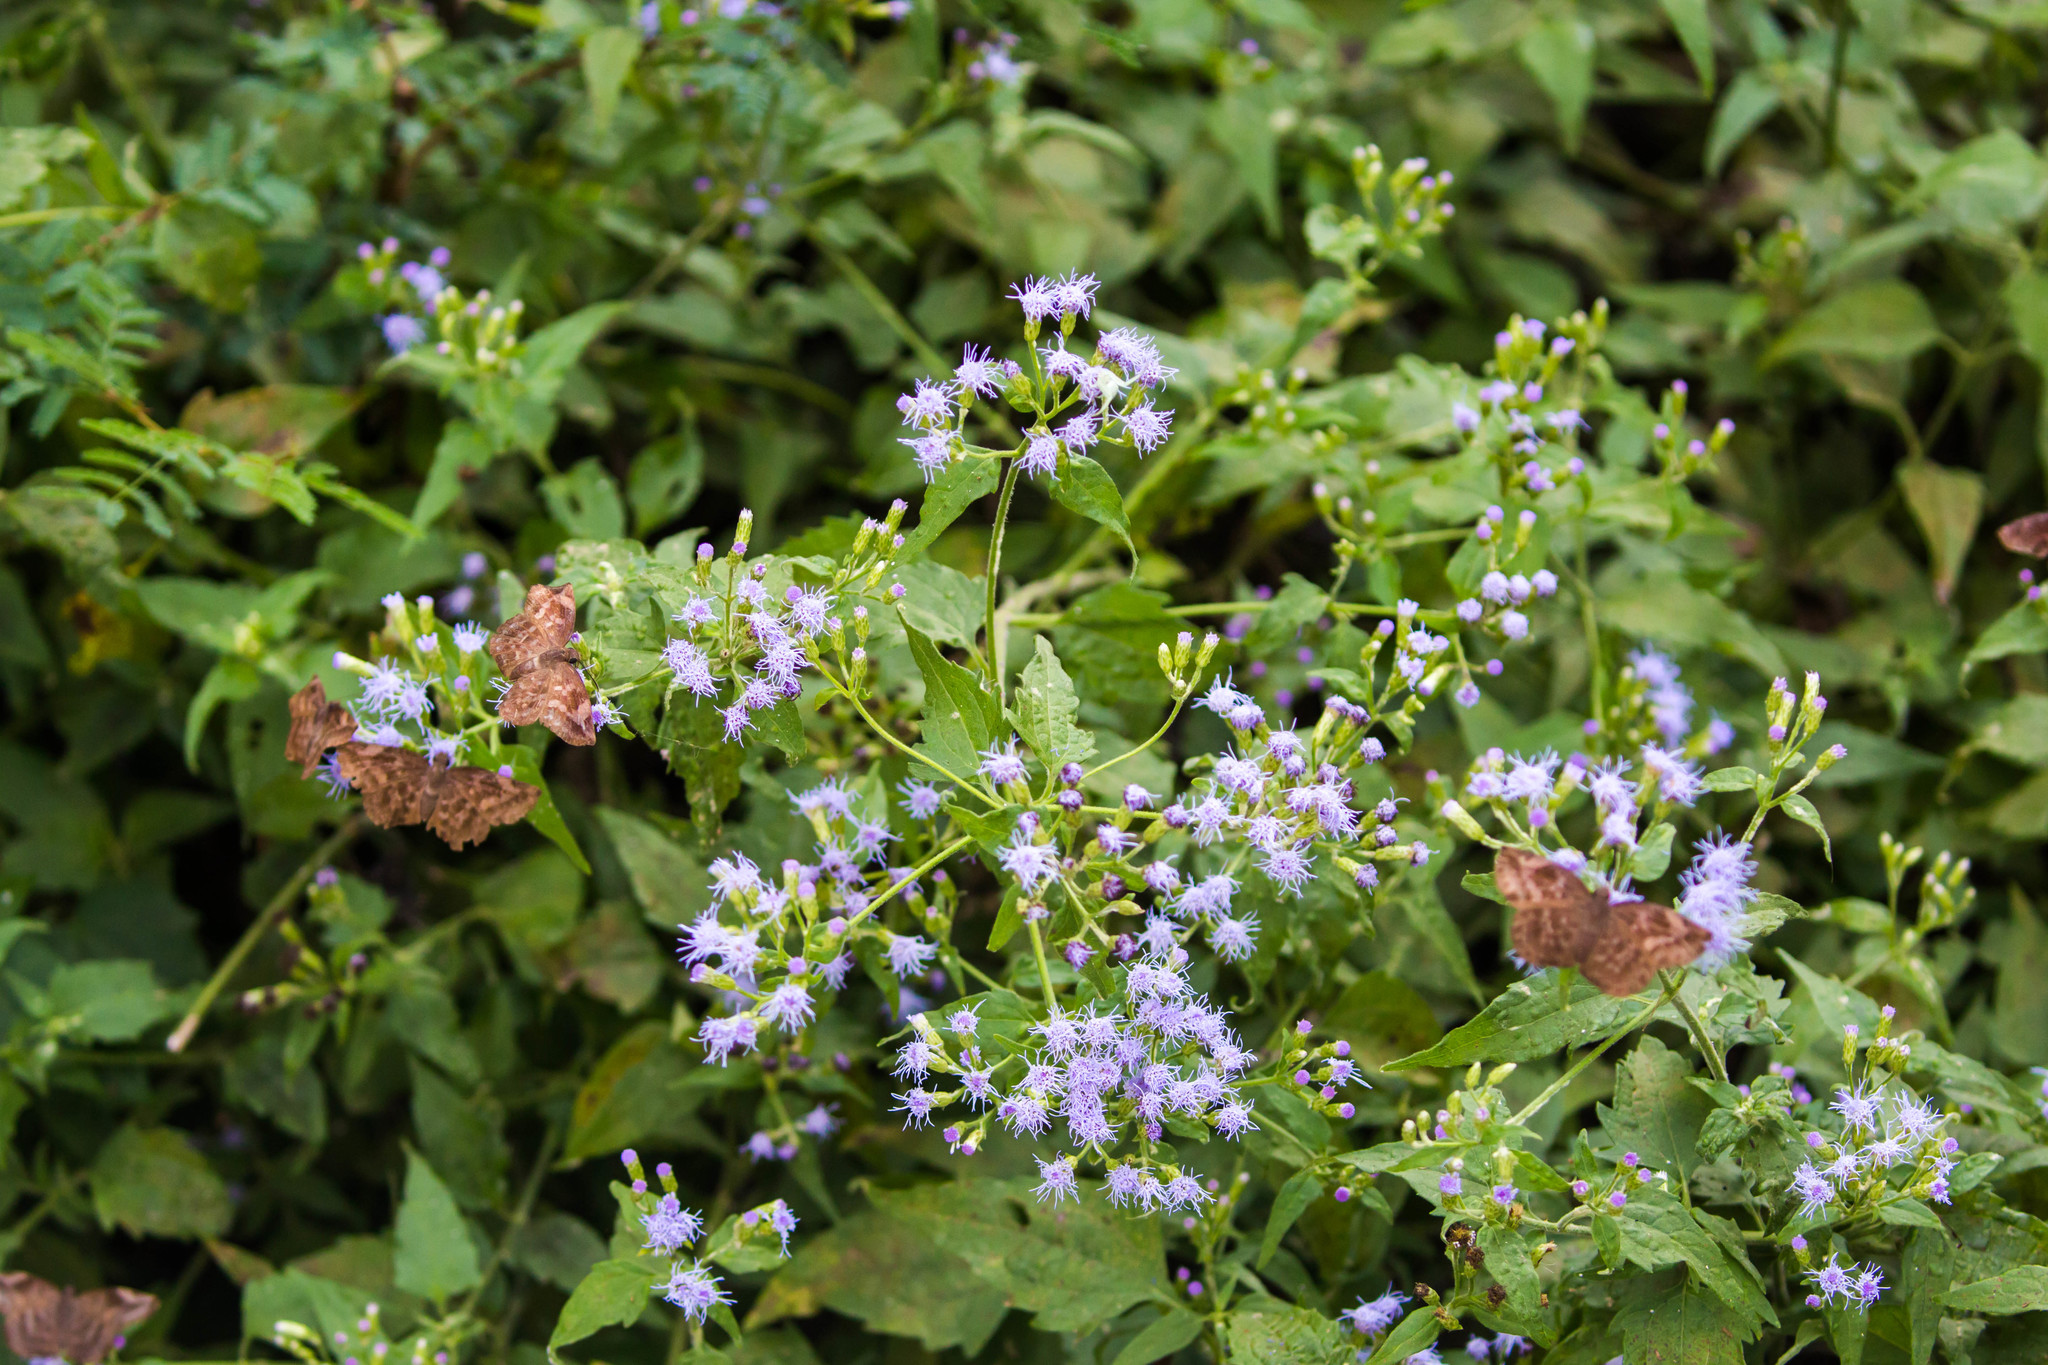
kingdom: Animalia
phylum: Arthropoda
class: Insecta
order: Lepidoptera
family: Hesperiidae
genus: Achlyodes
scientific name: Achlyodes thraso
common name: Sickle-winged skipper
